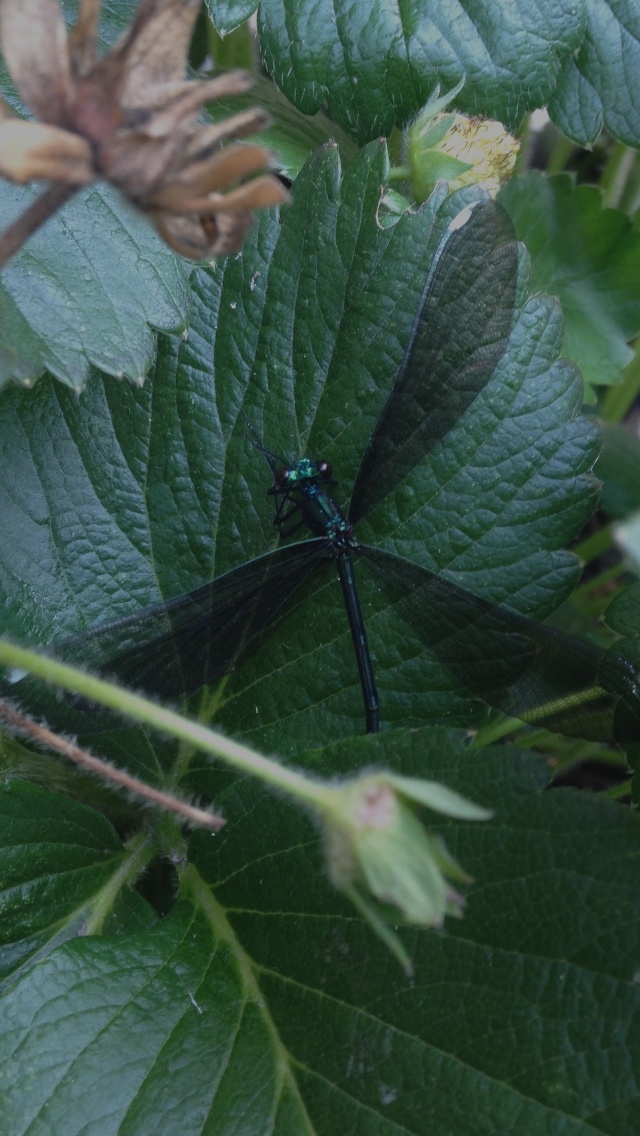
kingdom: Animalia
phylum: Arthropoda
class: Insecta
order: Odonata
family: Calopterygidae
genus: Calopteryx
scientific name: Calopteryx maculata
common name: Ebony jewelwing
